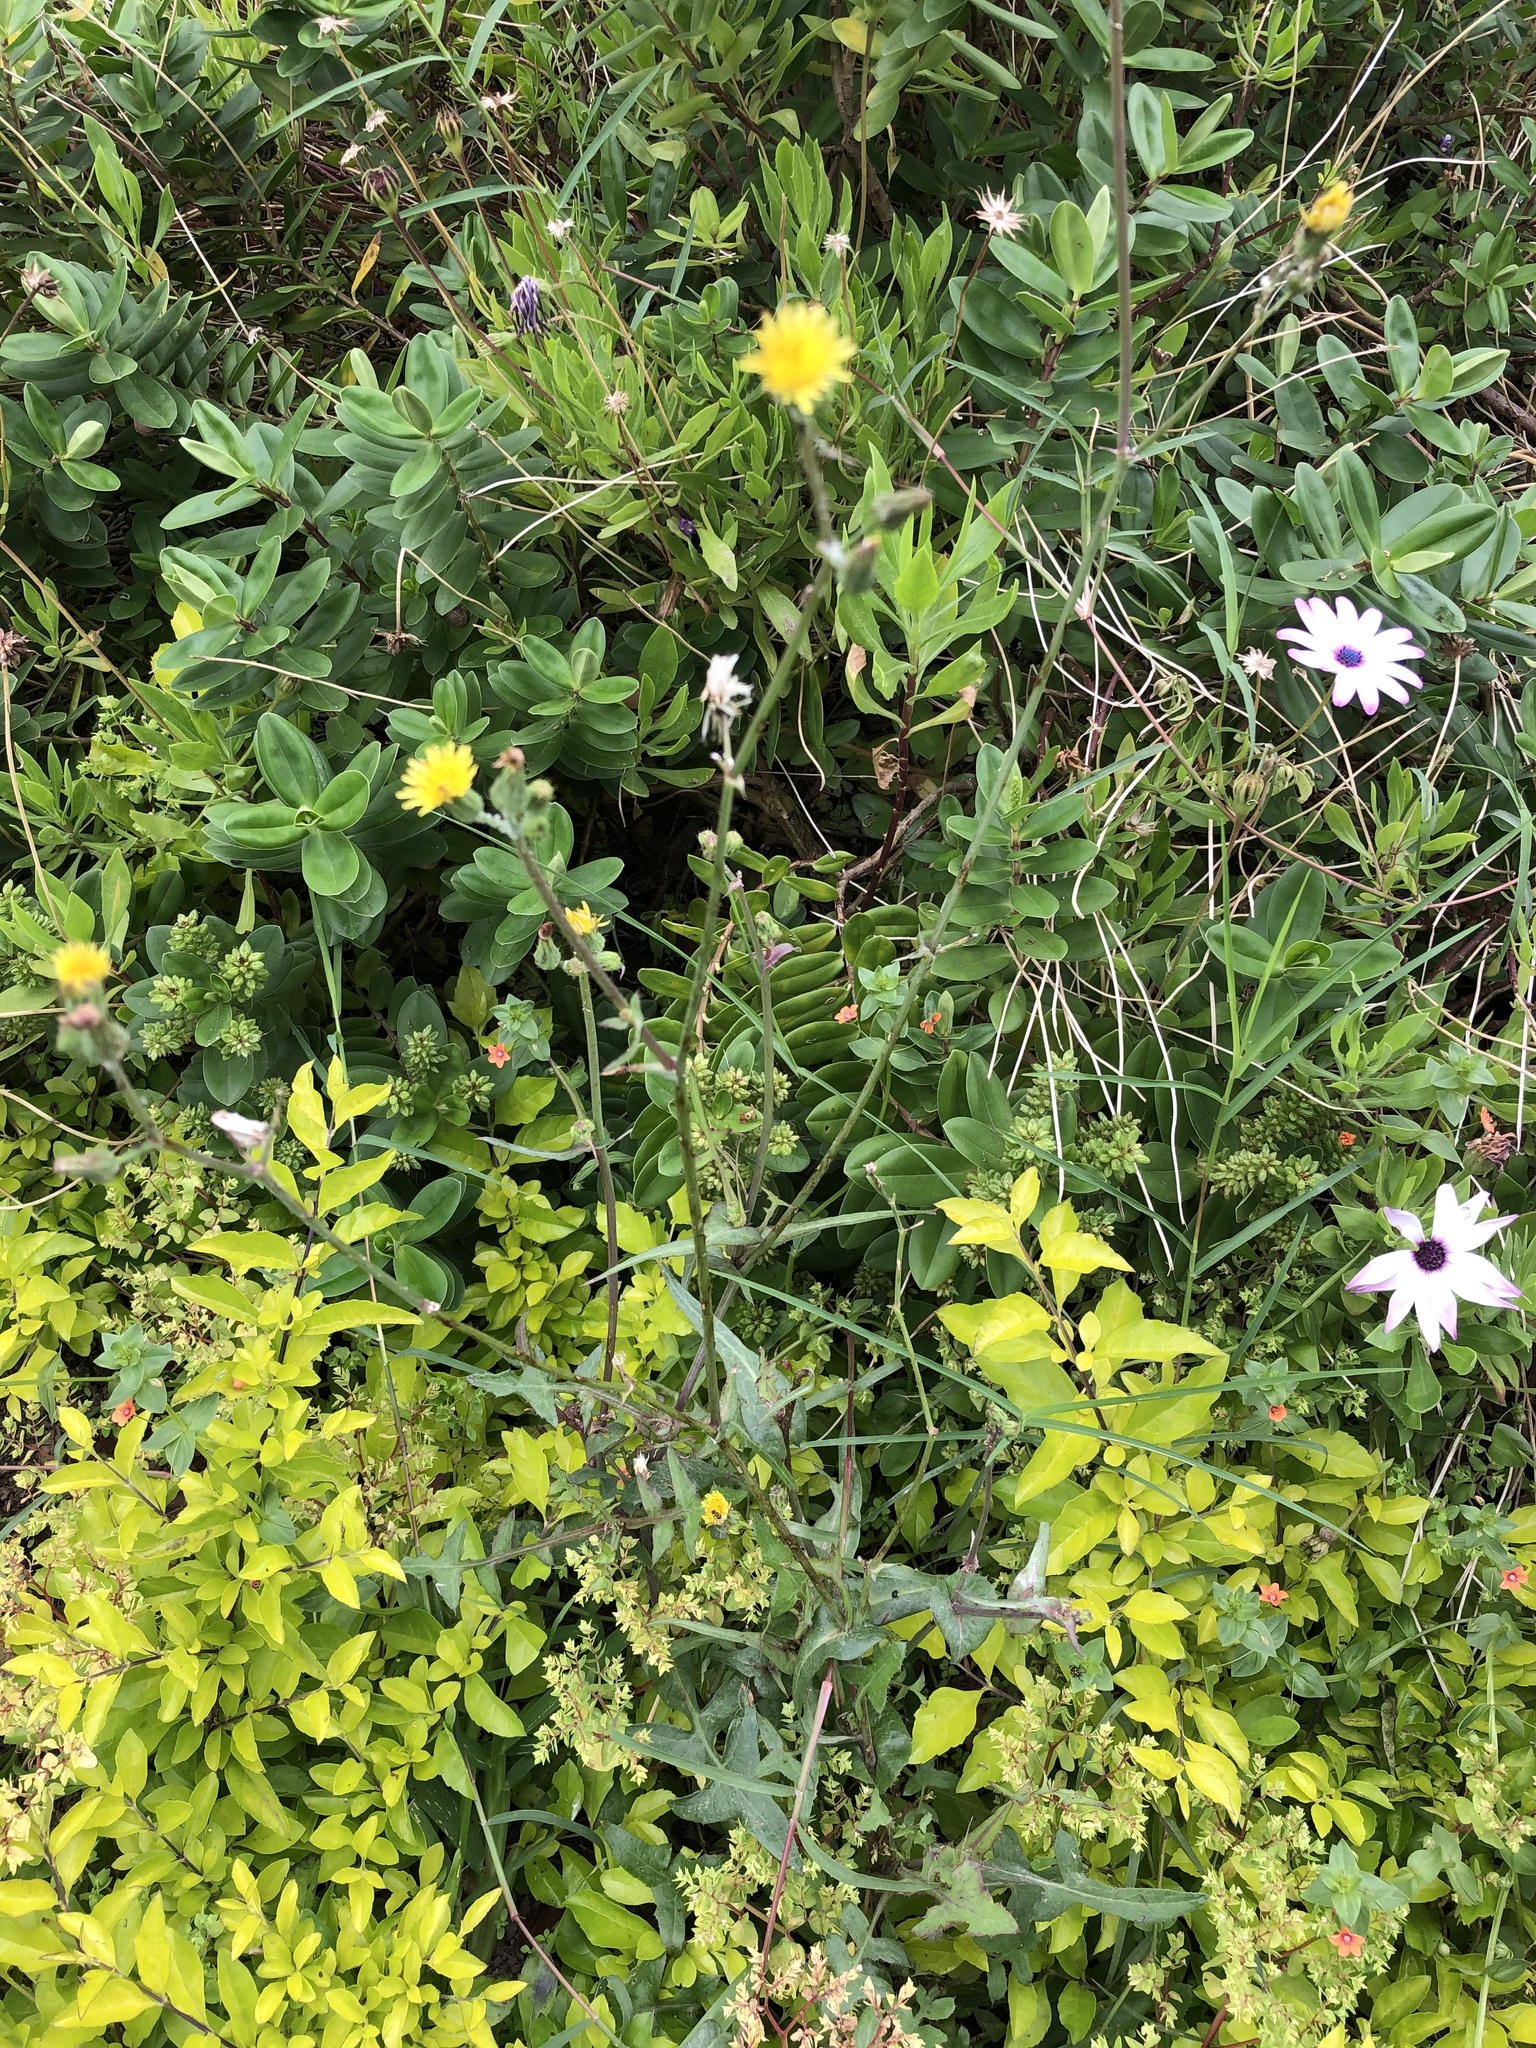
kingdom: Plantae
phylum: Tracheophyta
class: Magnoliopsida
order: Asterales
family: Asteraceae
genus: Sonchus
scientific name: Sonchus oleraceus
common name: Common sowthistle
